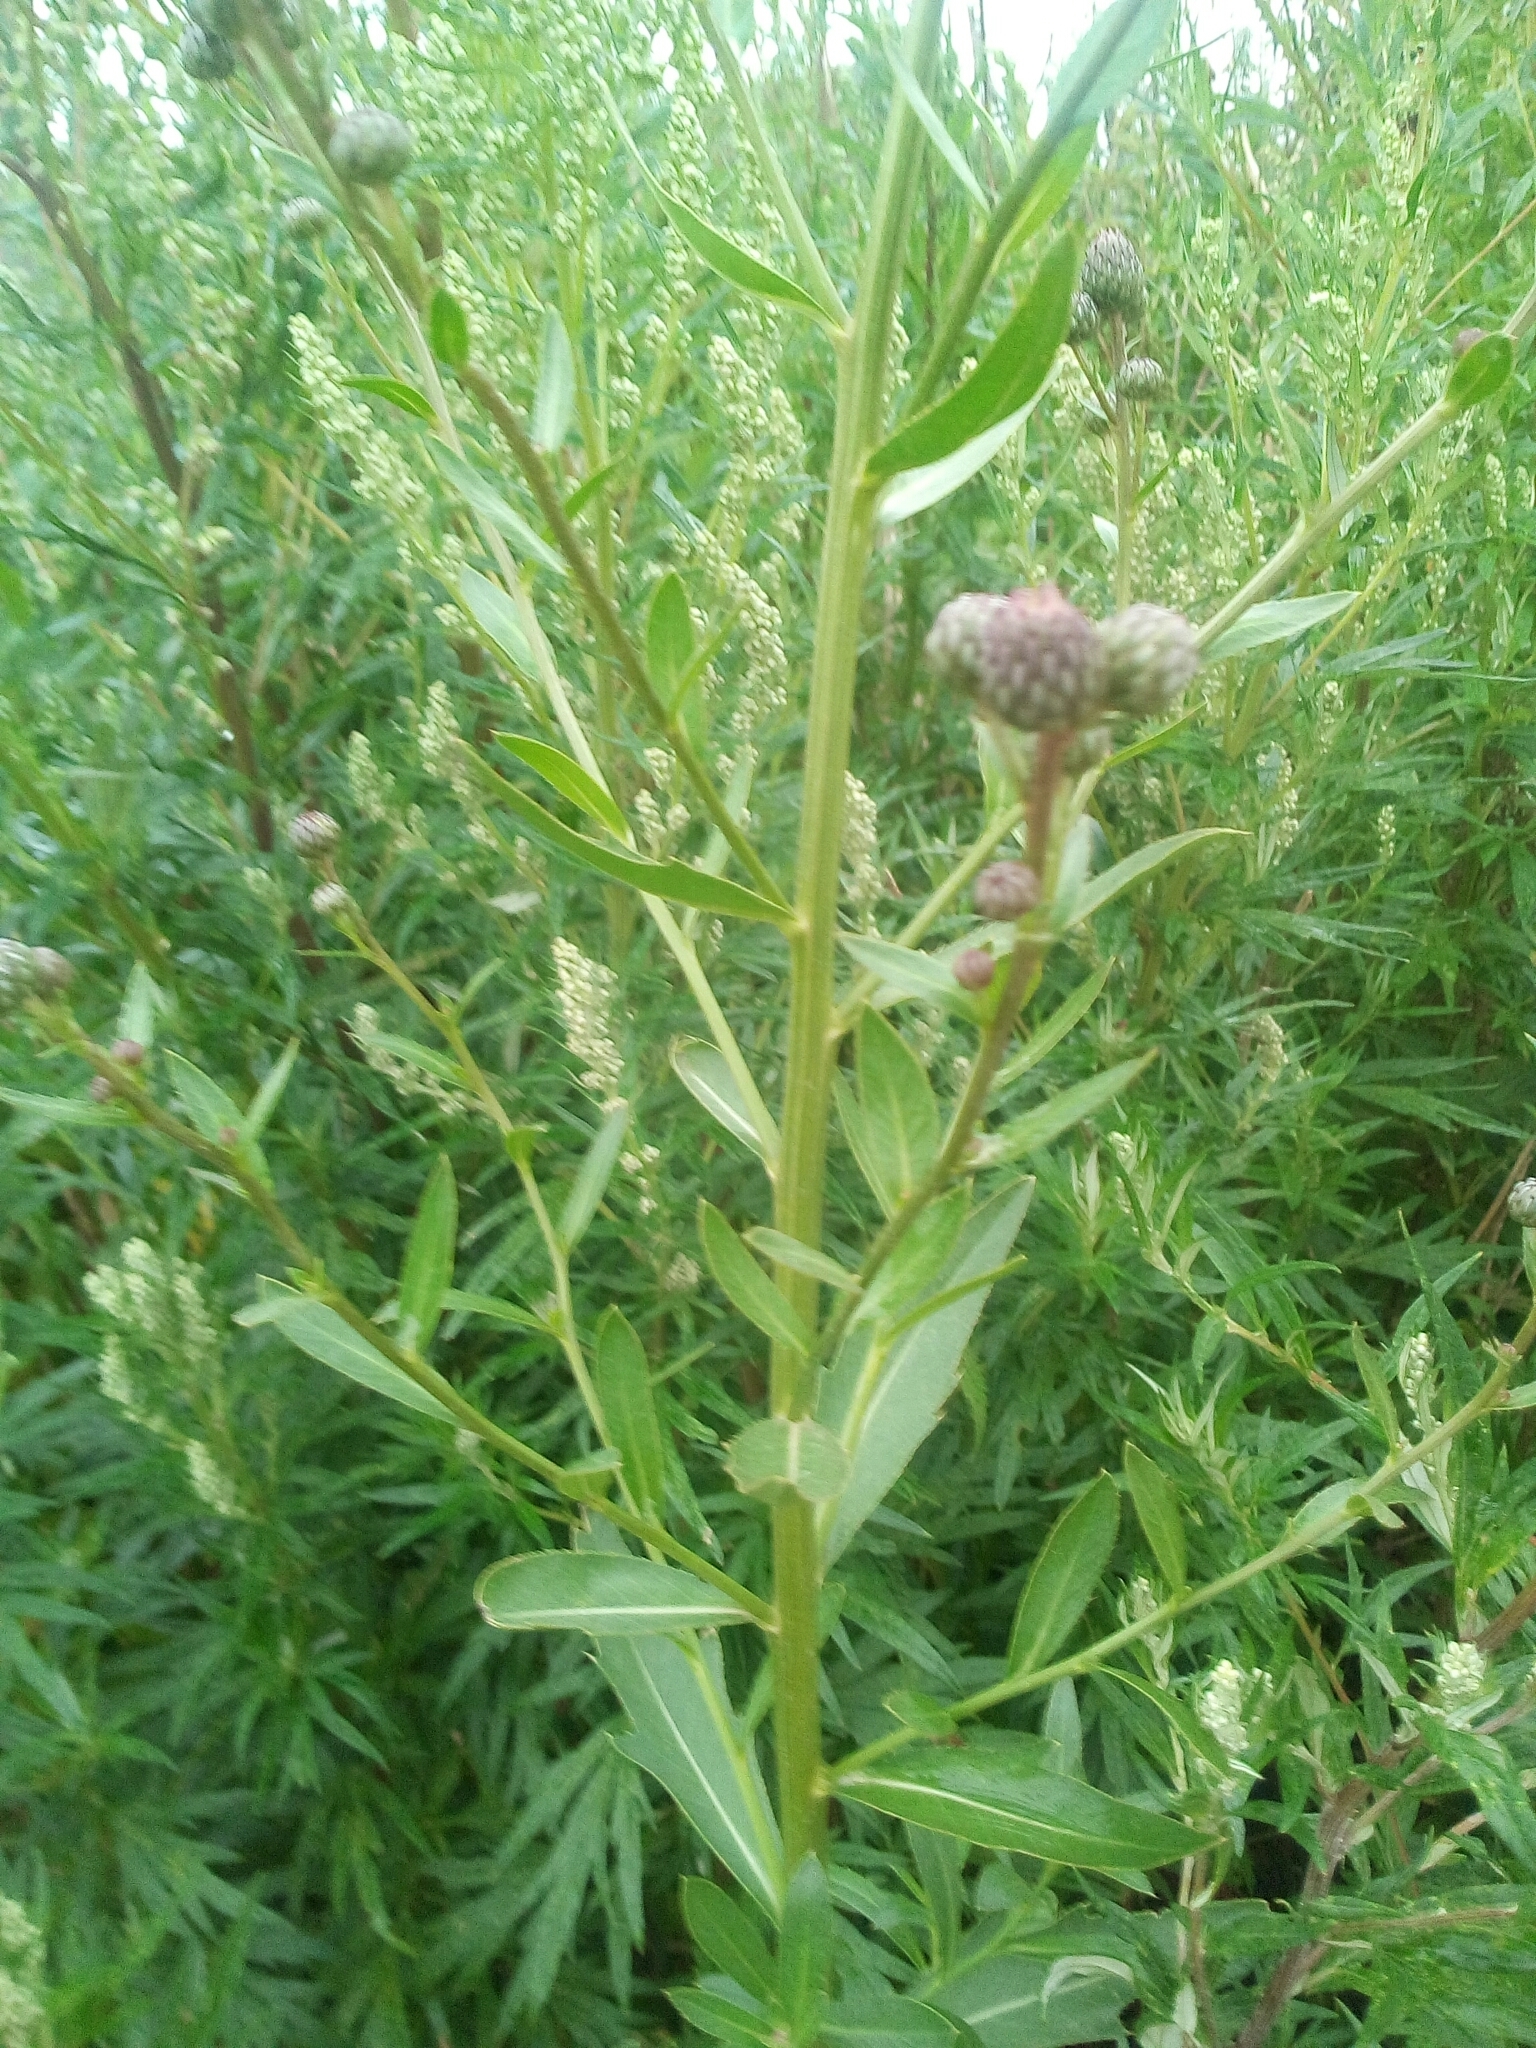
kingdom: Plantae
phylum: Tracheophyta
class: Magnoliopsida
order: Asterales
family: Asteraceae
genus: Cirsium
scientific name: Cirsium arvense
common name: Creeping thistle
